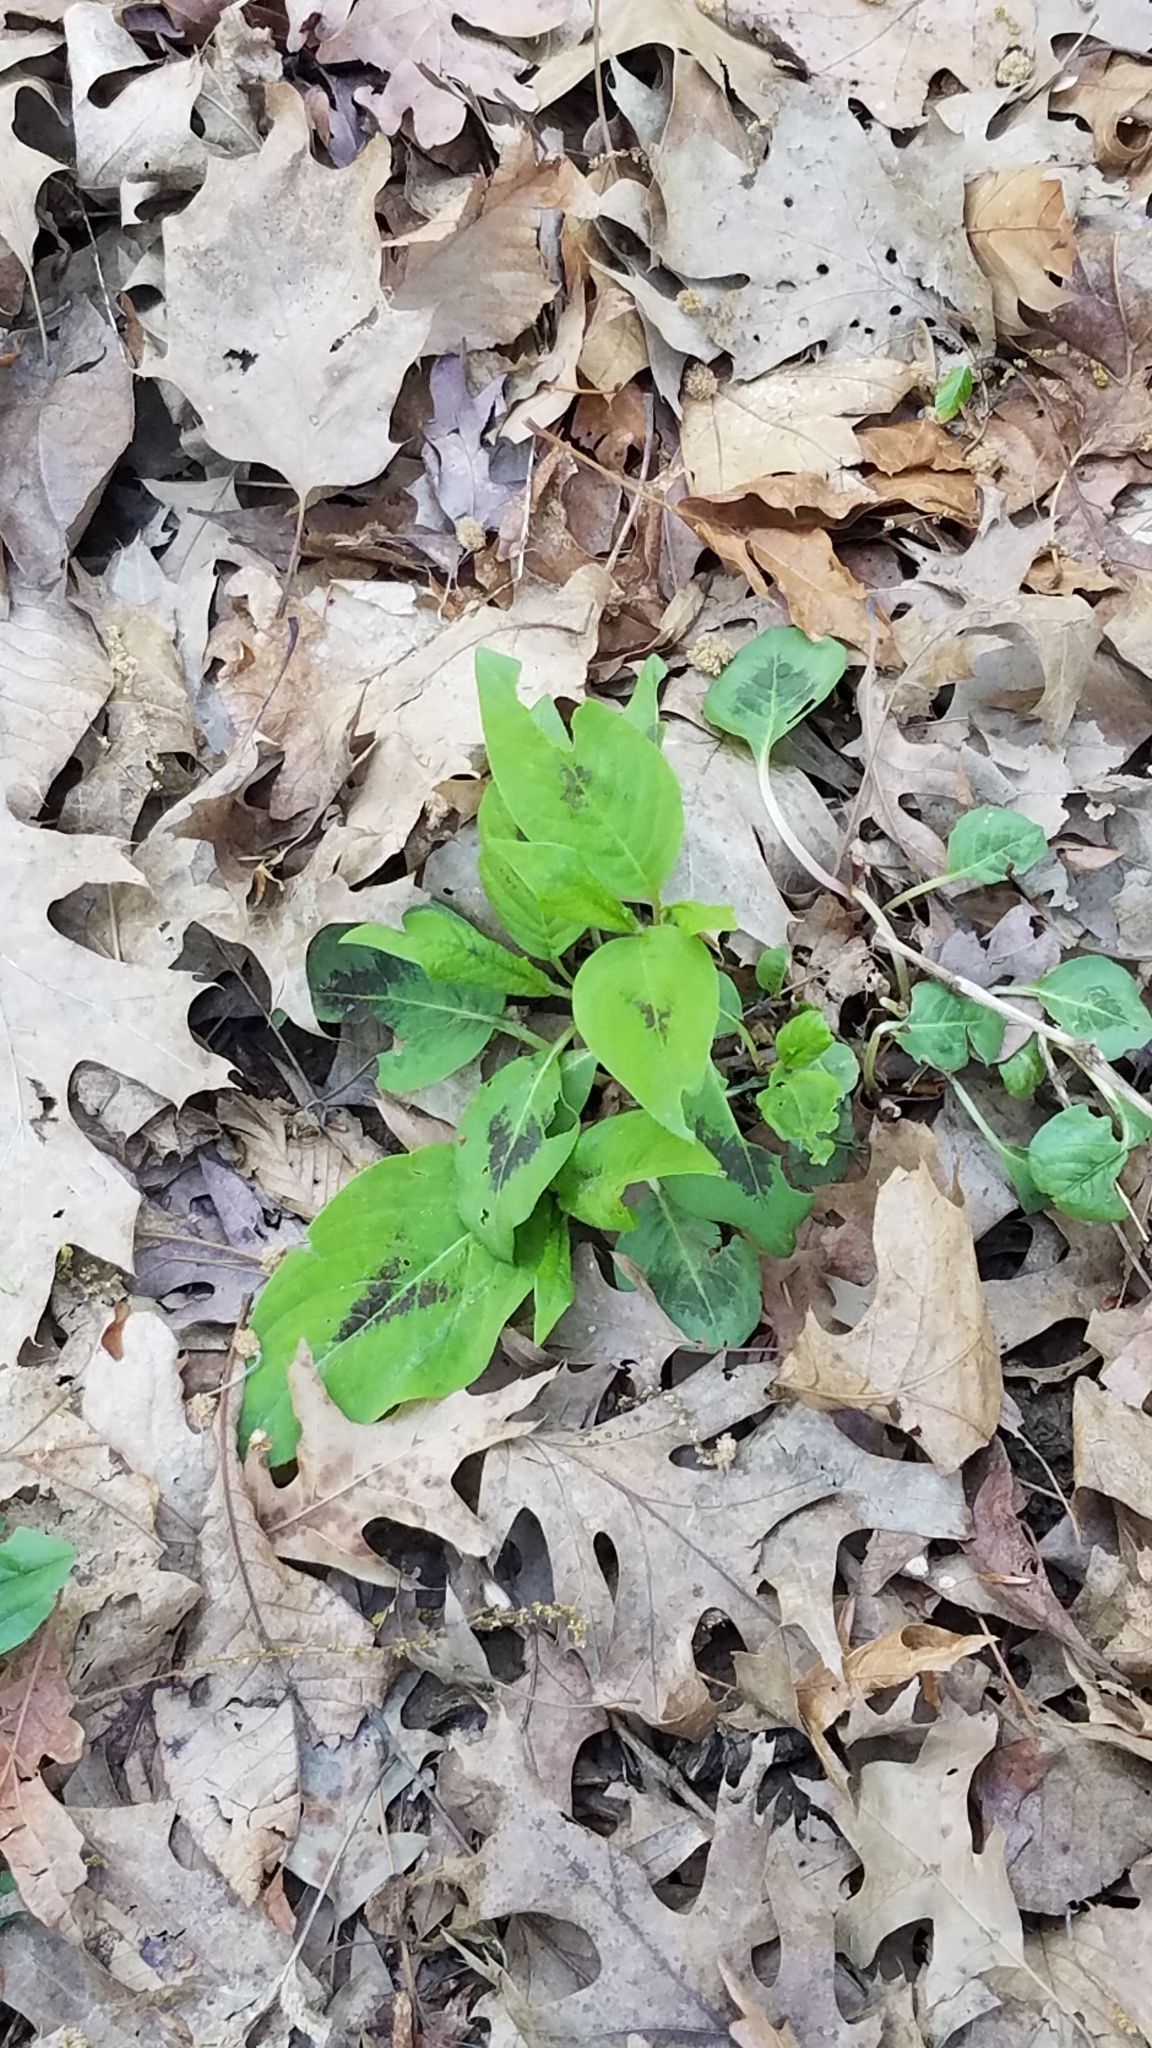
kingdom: Plantae
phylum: Tracheophyta
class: Magnoliopsida
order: Caryophyllales
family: Polygonaceae
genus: Persicaria
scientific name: Persicaria virginiana
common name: Jumpseed
